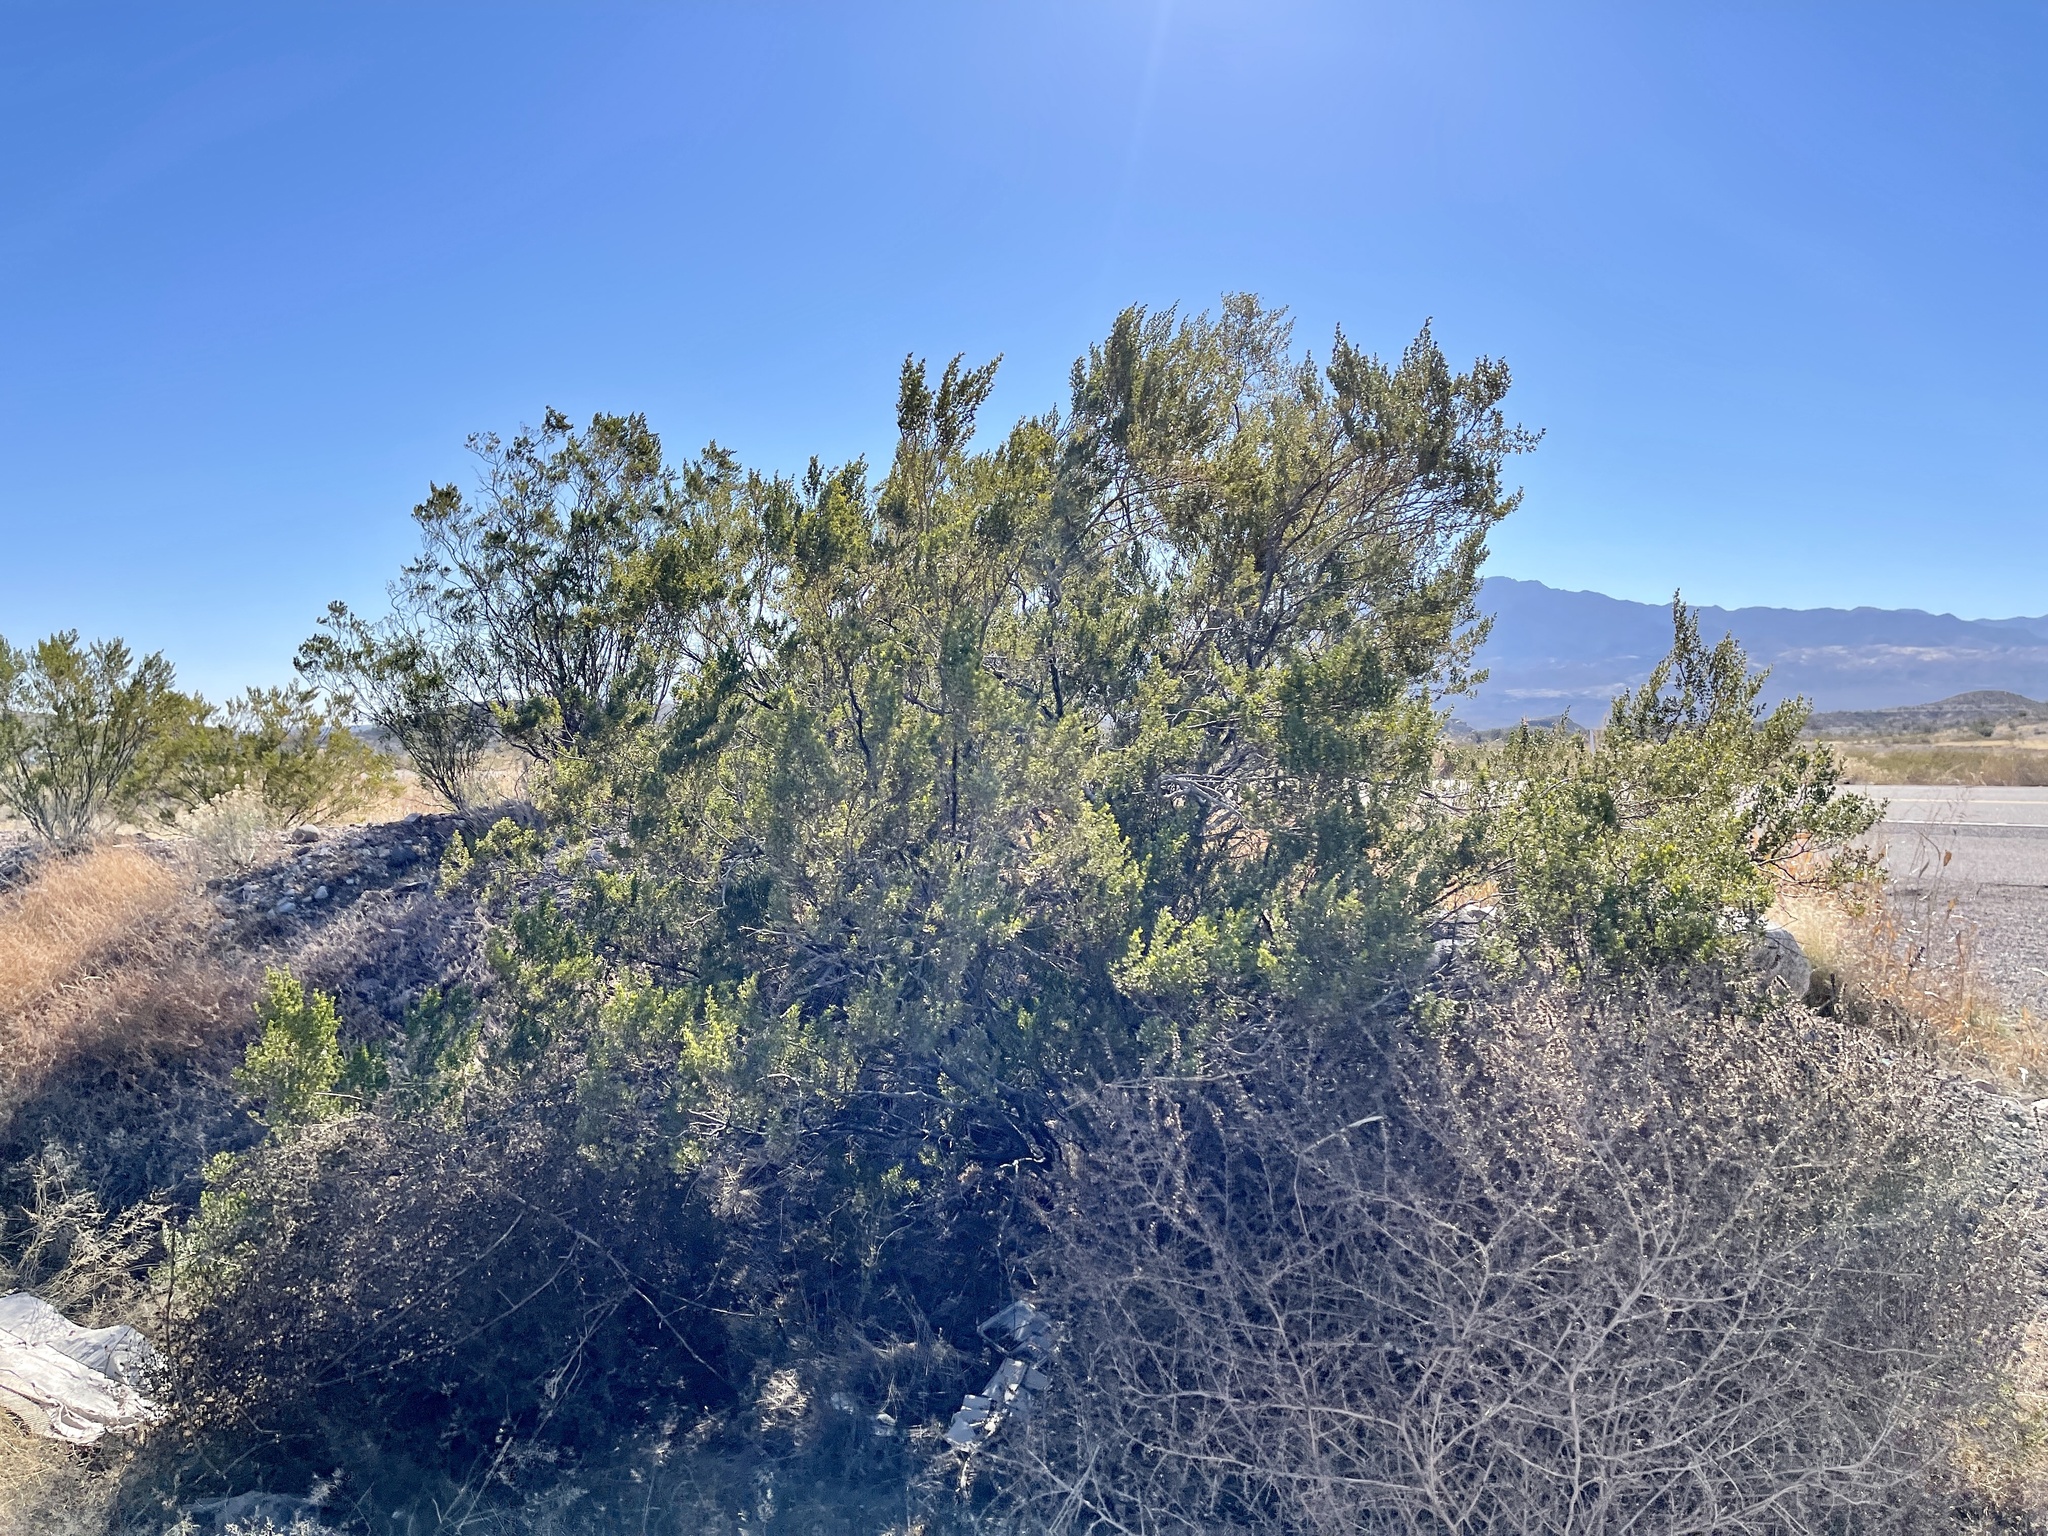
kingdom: Plantae
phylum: Tracheophyta
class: Magnoliopsida
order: Zygophyllales
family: Zygophyllaceae
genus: Larrea
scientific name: Larrea tridentata
